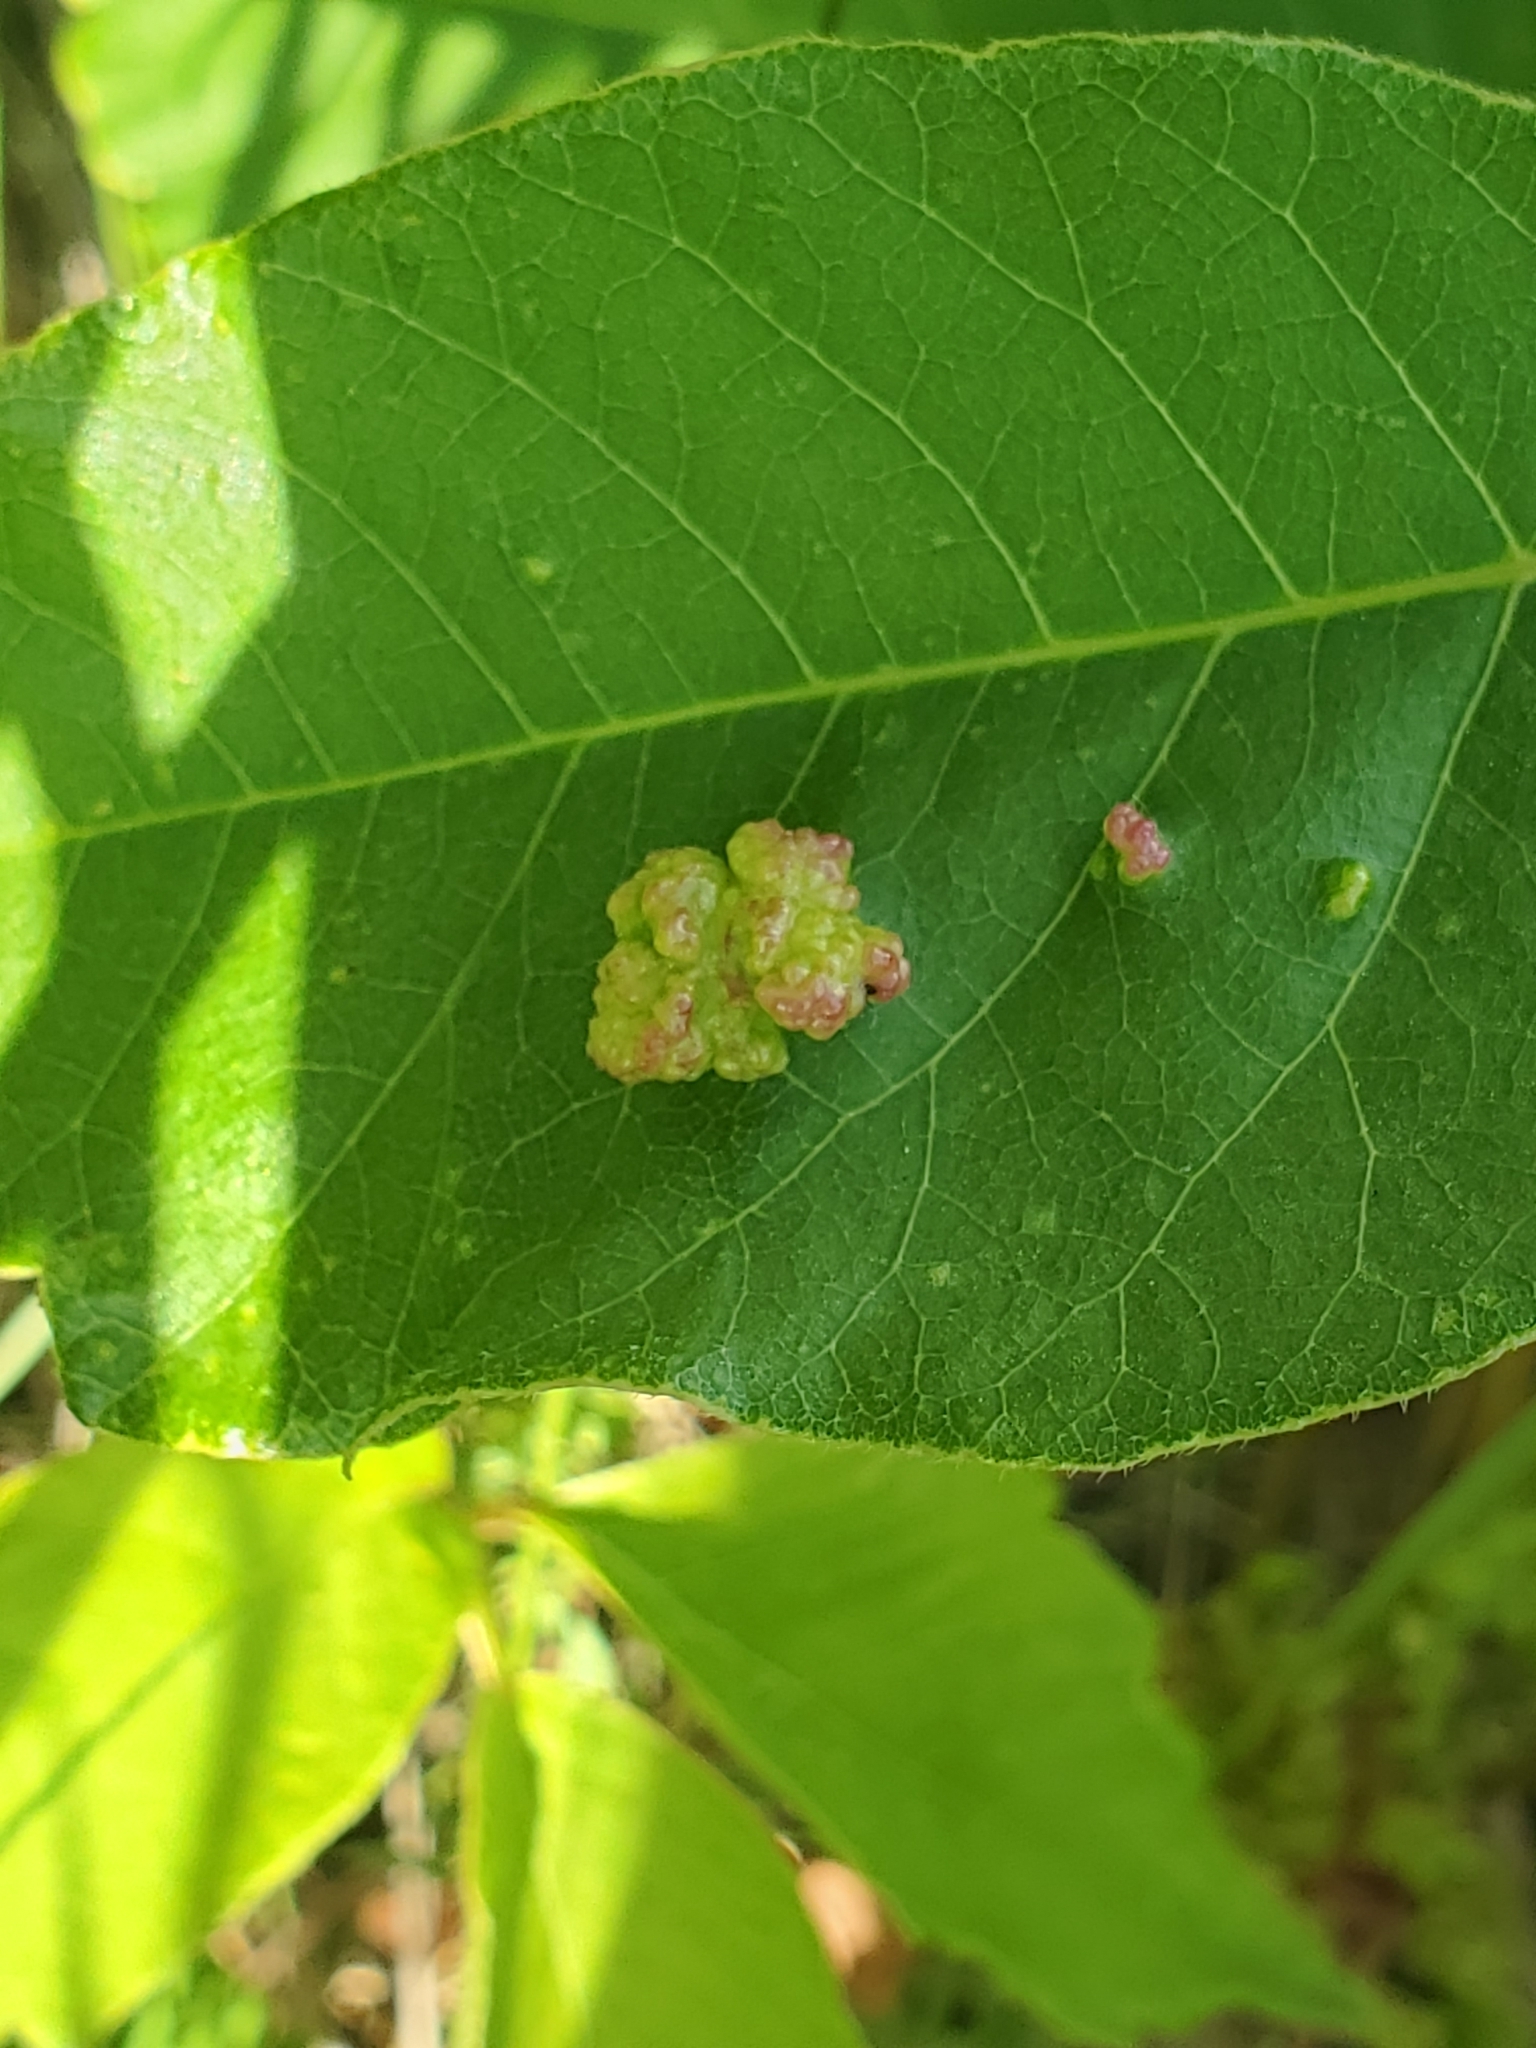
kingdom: Animalia
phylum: Arthropoda
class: Arachnida
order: Trombidiformes
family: Eriophyidae
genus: Aculops
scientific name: Aculops
